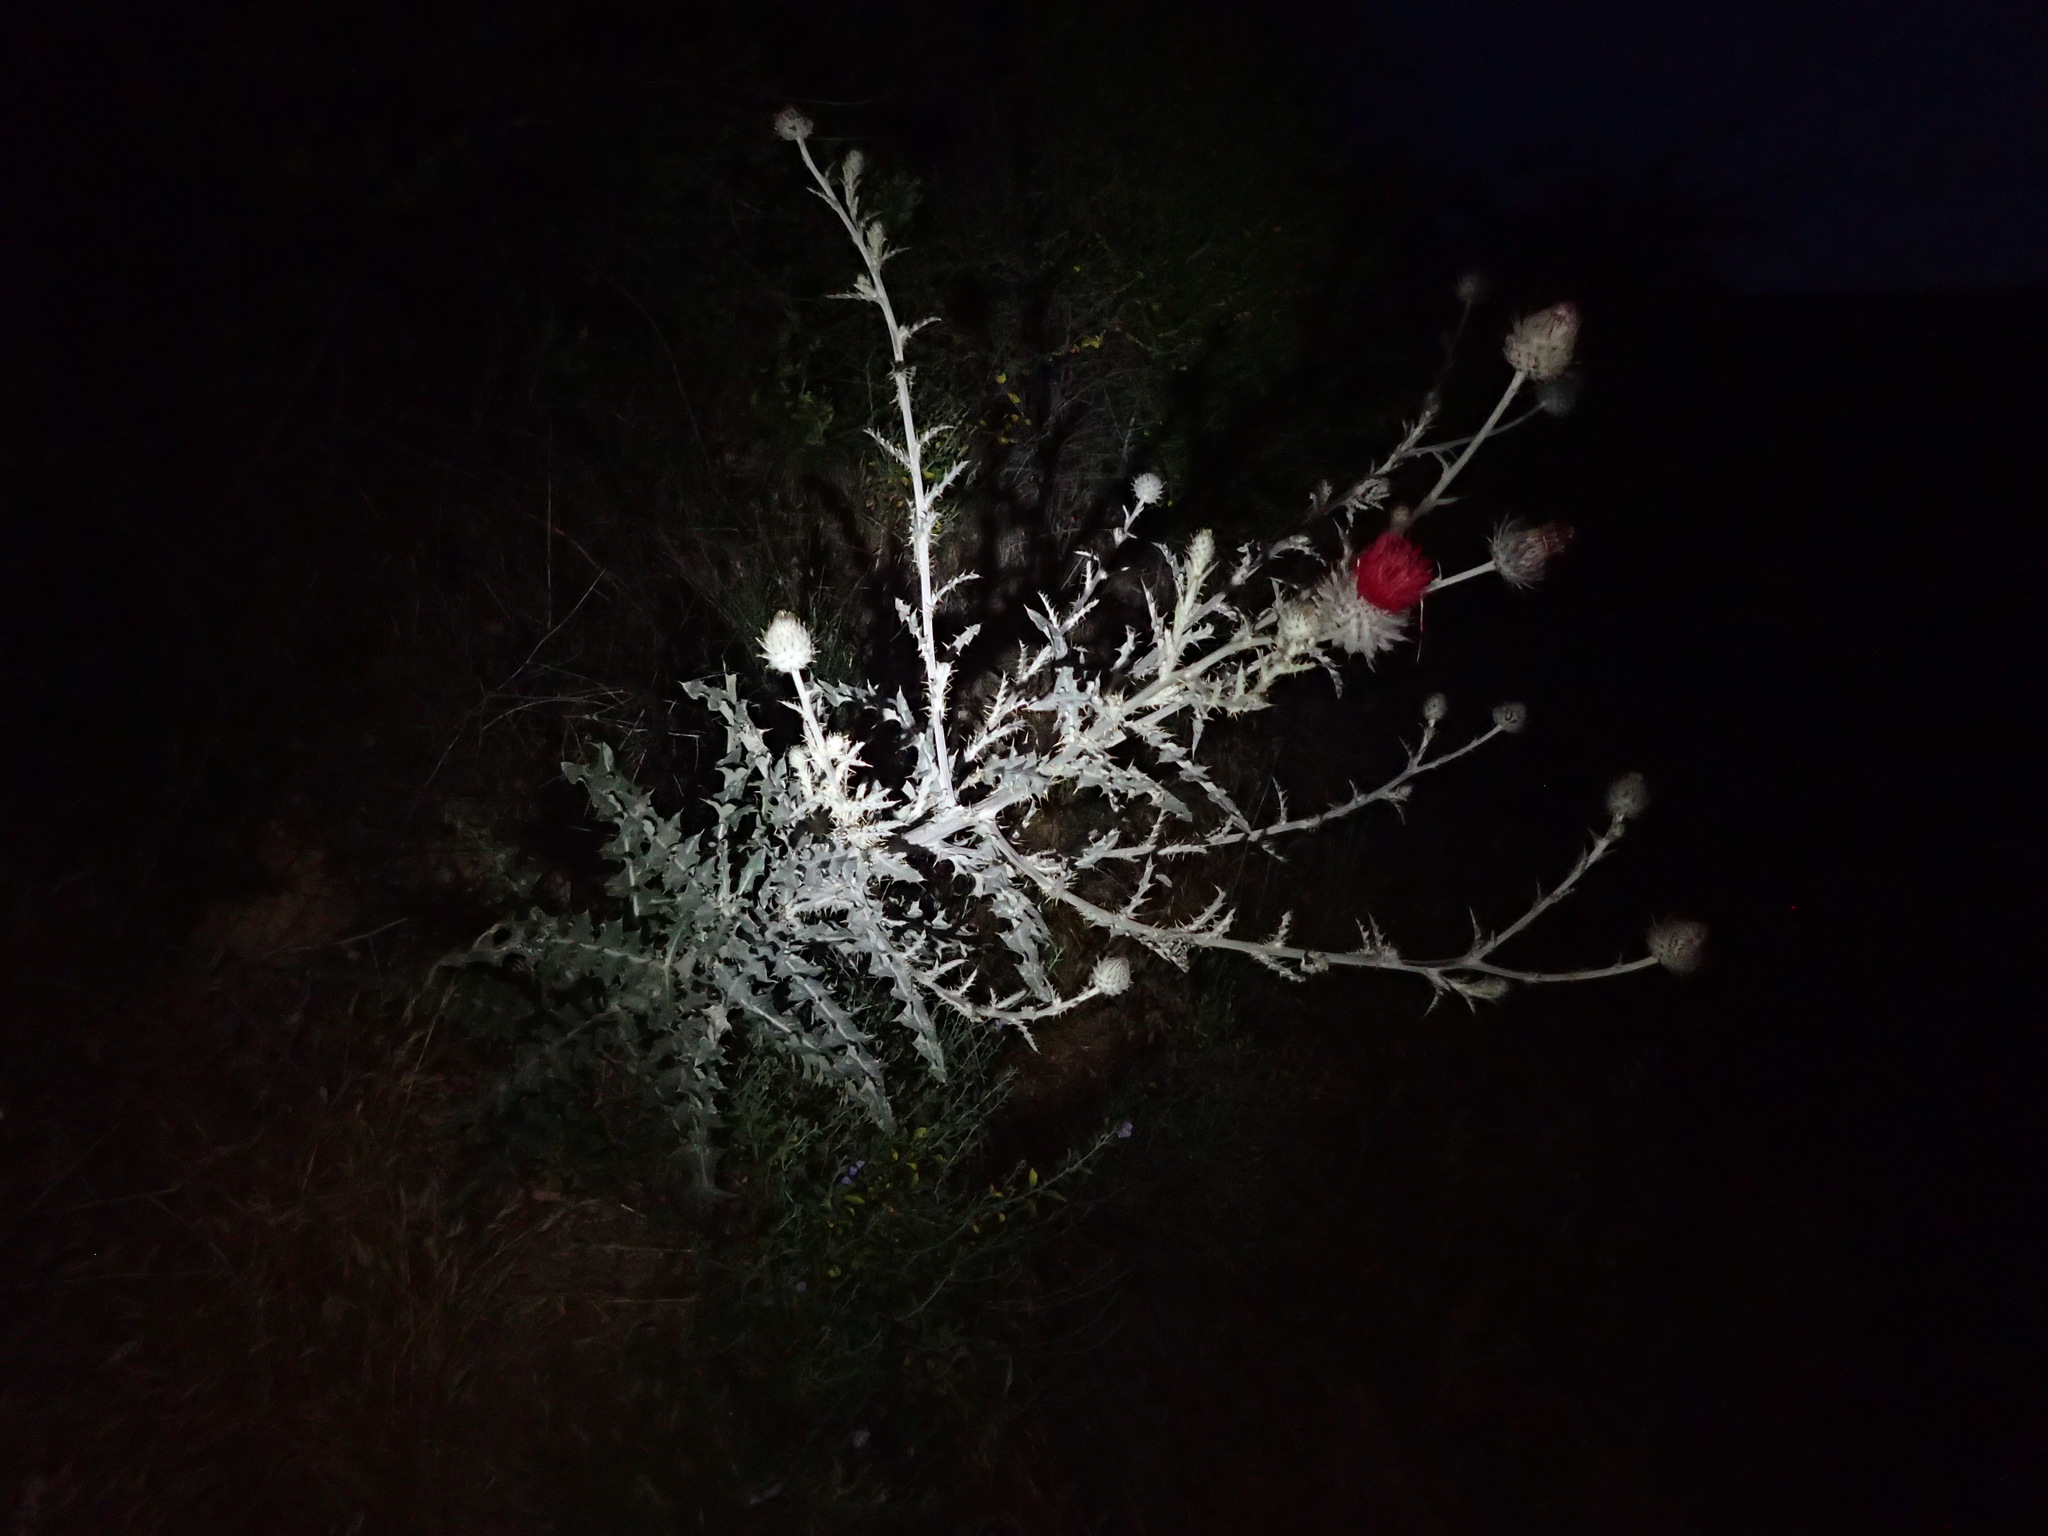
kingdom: Plantae
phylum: Tracheophyta
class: Magnoliopsida
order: Asterales
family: Asteraceae
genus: Cirsium
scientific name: Cirsium occidentale
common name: Western thistle
